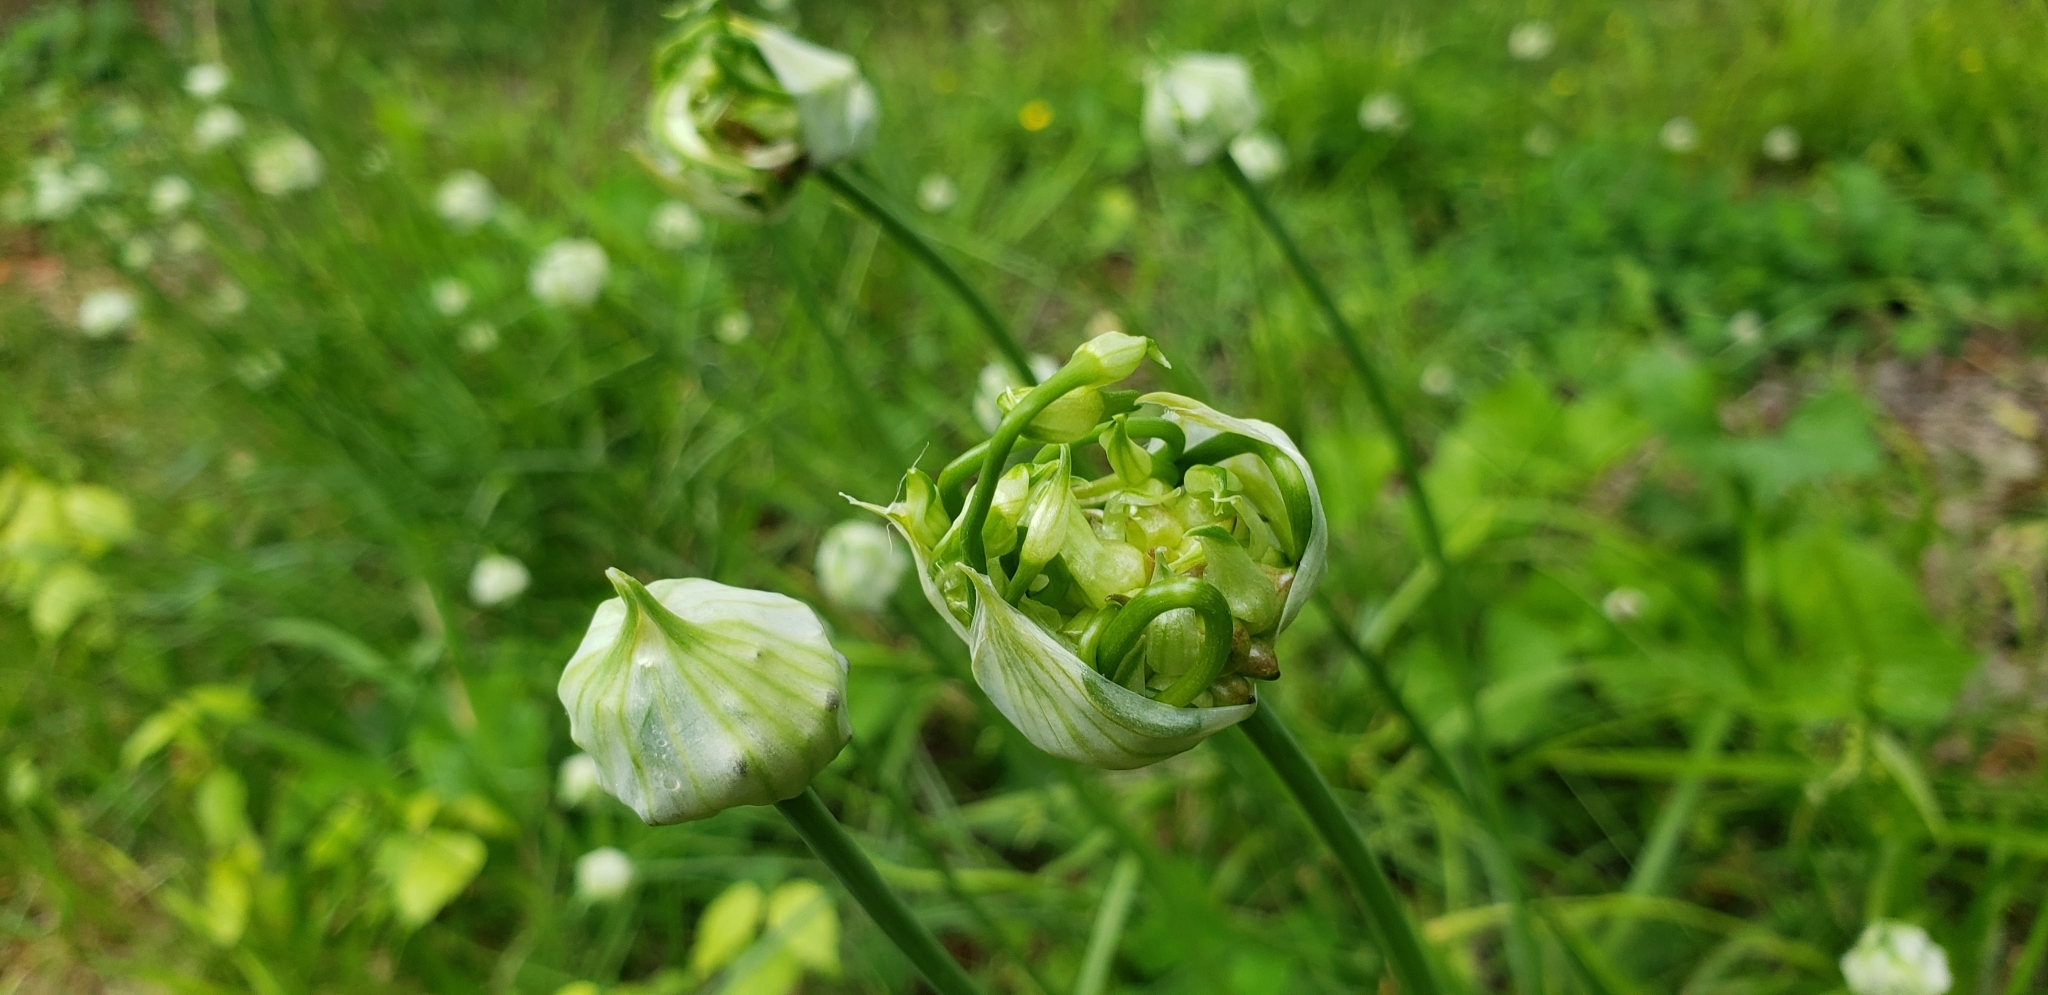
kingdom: Plantae
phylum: Tracheophyta
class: Liliopsida
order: Asparagales
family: Amaryllidaceae
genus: Allium
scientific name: Allium canadense
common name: Meadow garlic
